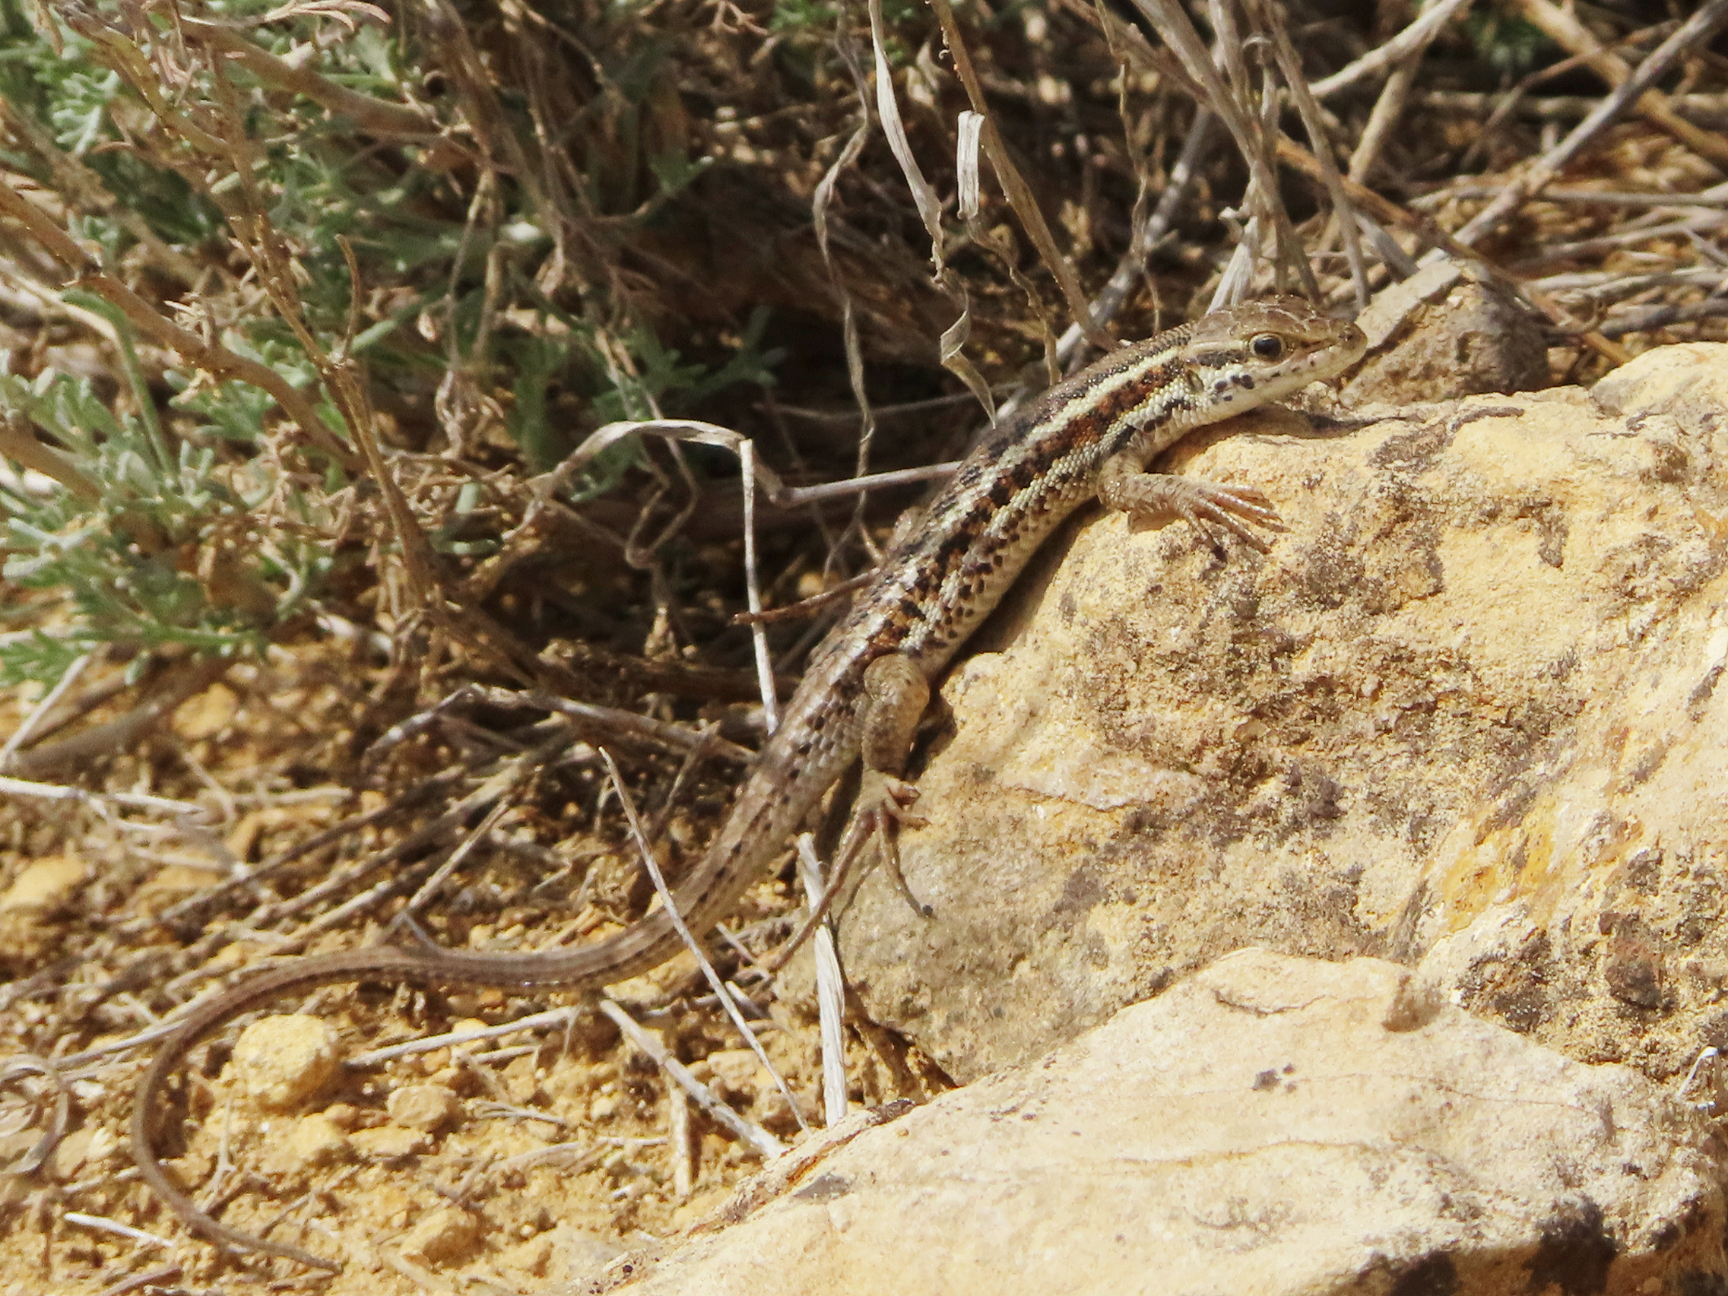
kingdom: Animalia
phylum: Chordata
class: Squamata
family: Lacertidae
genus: Ophisops
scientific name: Ophisops elegans
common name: Snake-eyed lizard
